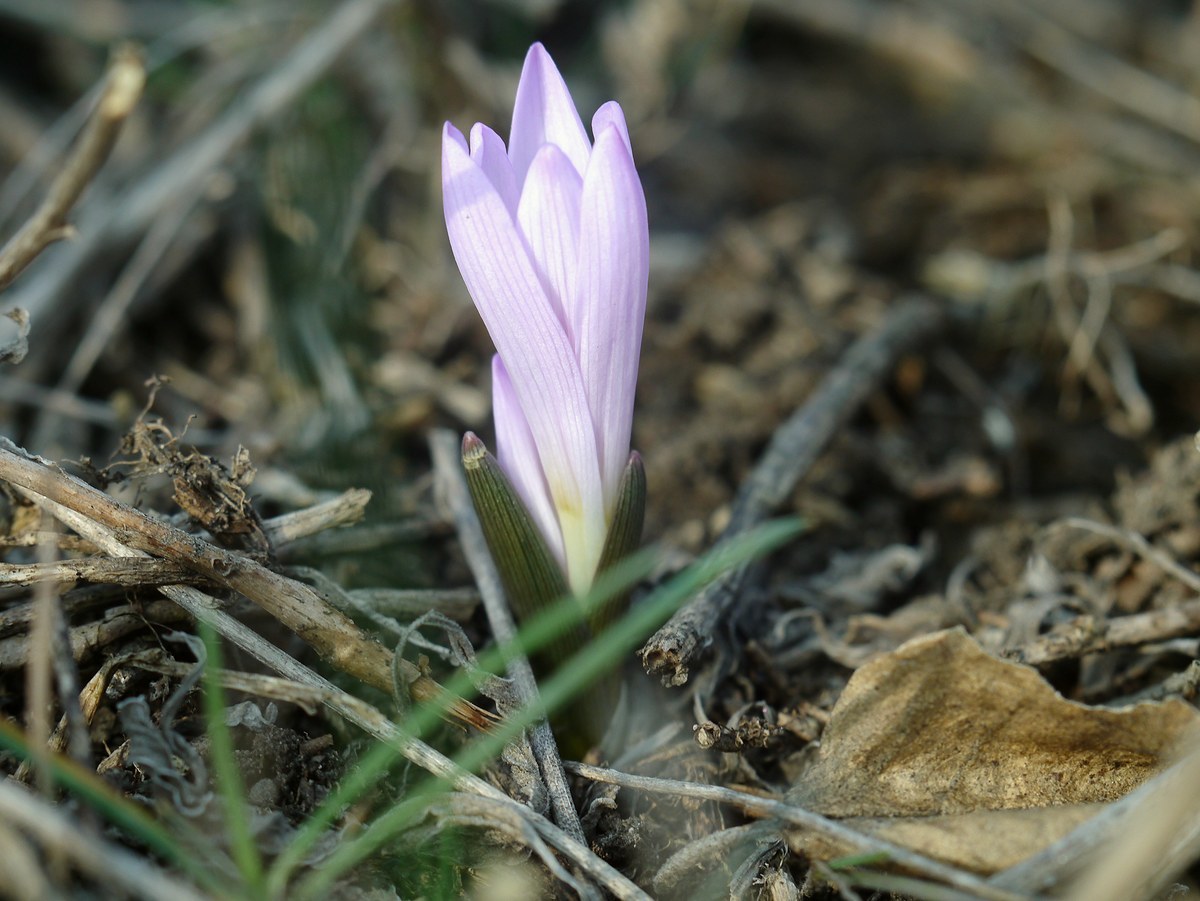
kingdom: Plantae
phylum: Tracheophyta
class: Liliopsida
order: Liliales
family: Colchicaceae
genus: Colchicum
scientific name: Colchicum bulbocodium
